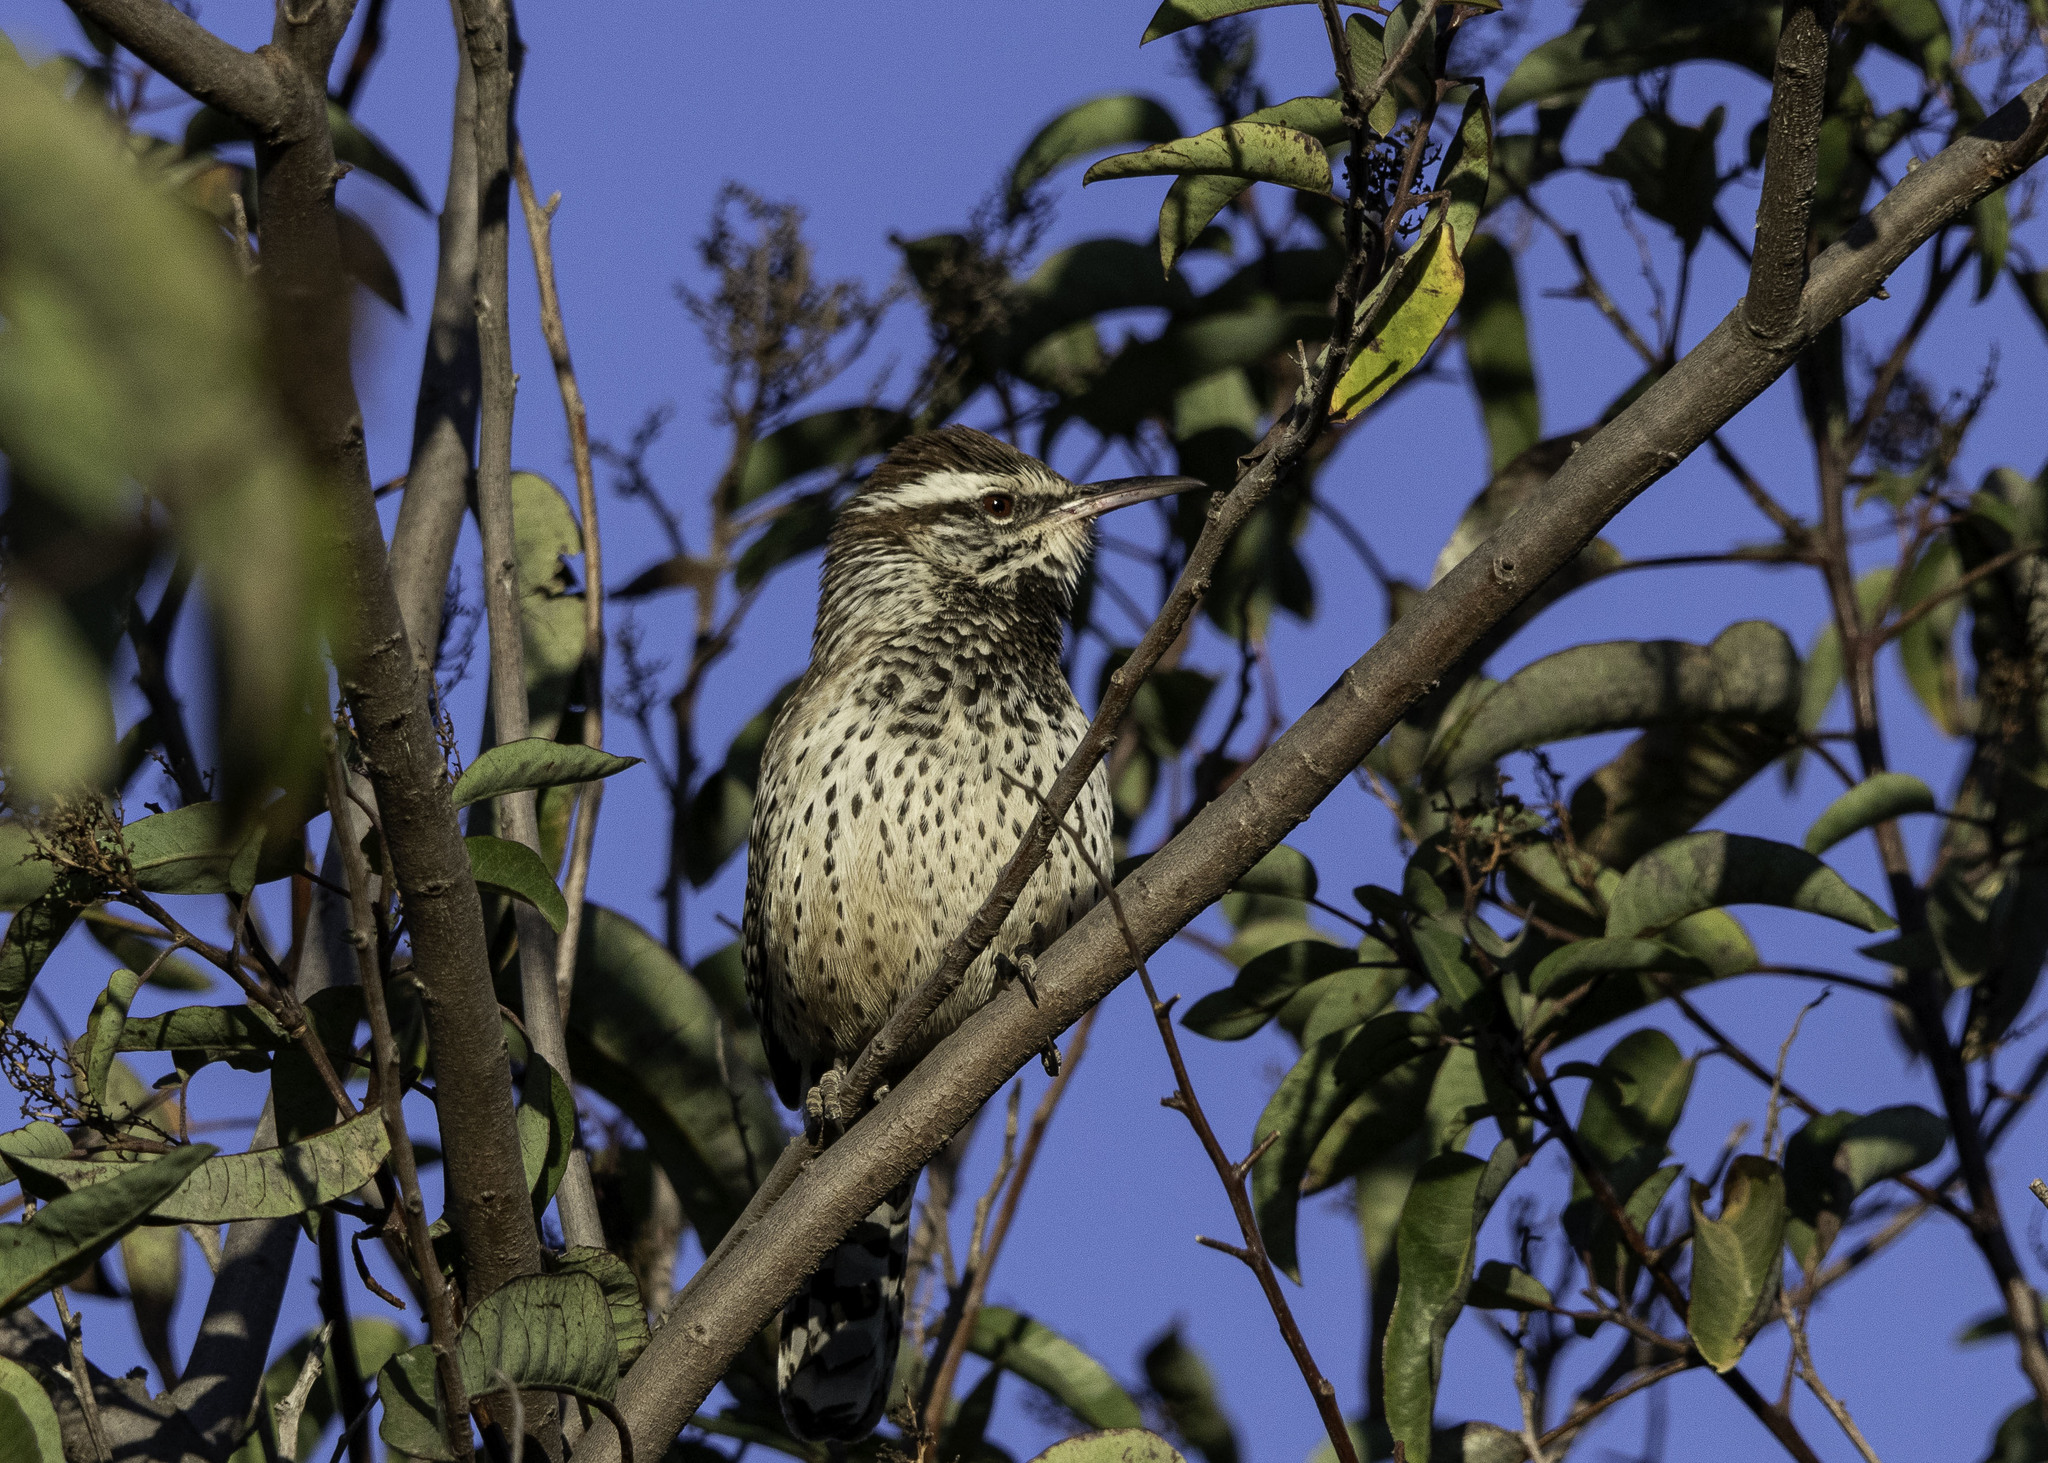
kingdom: Animalia
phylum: Chordata
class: Aves
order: Passeriformes
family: Troglodytidae
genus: Campylorhynchus
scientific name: Campylorhynchus brunneicapillus
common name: Cactus wren
